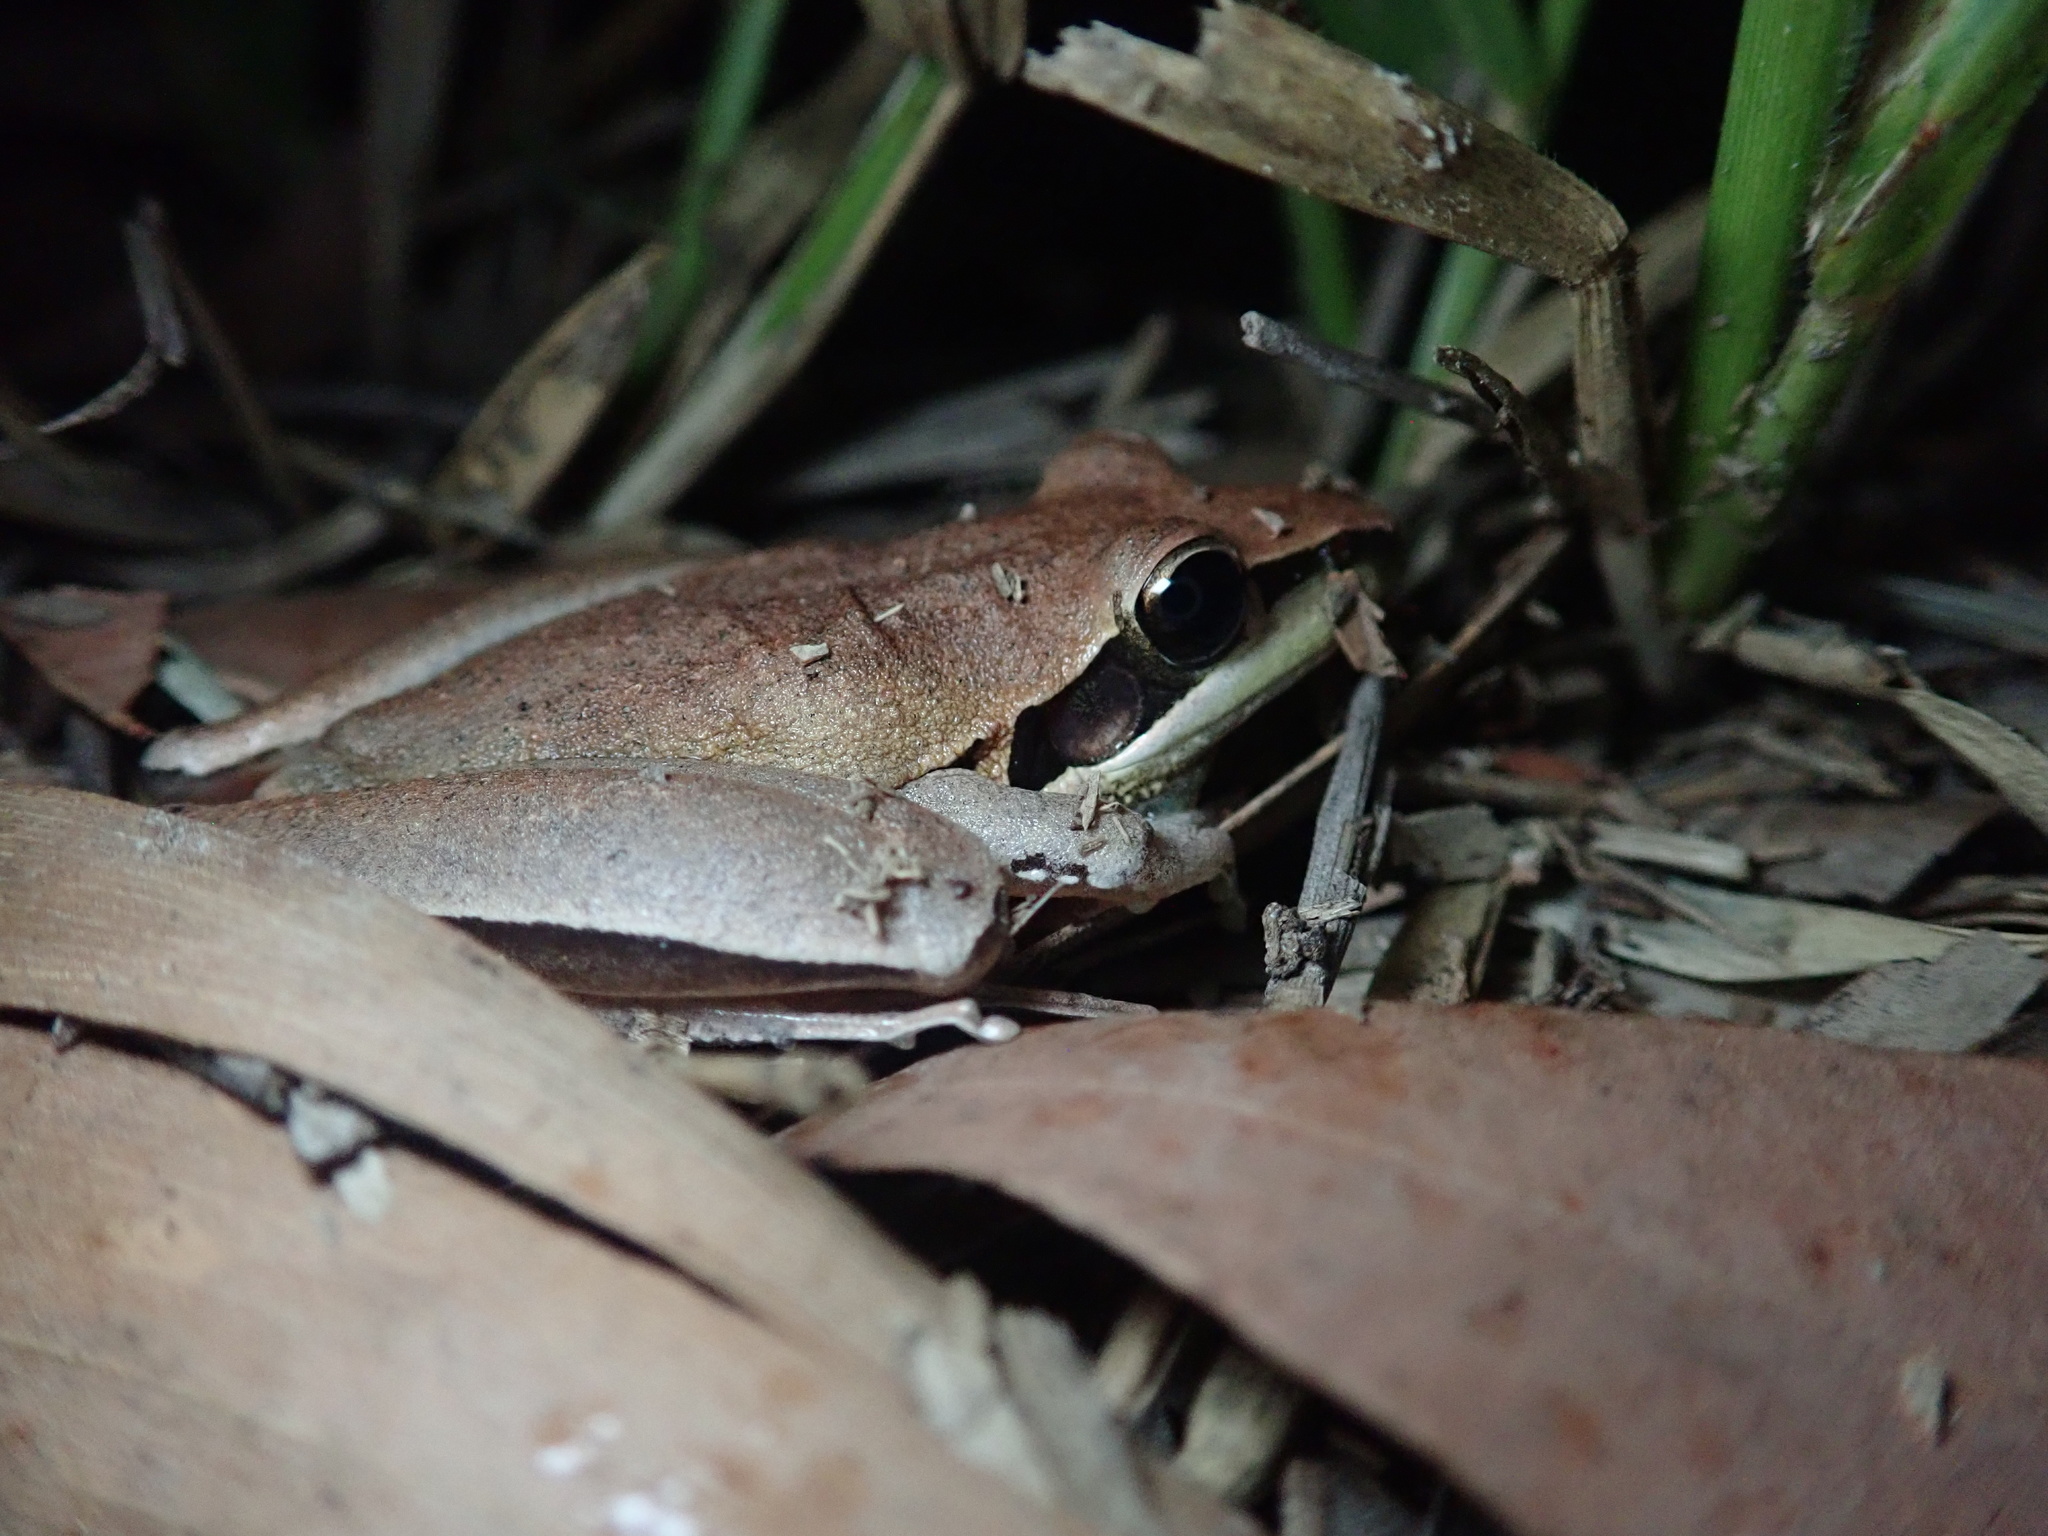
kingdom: Animalia
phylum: Chordata
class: Amphibia
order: Anura
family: Pelodryadidae
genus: Litoria
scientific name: Litoria nigrofrenata
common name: Bridle frog
